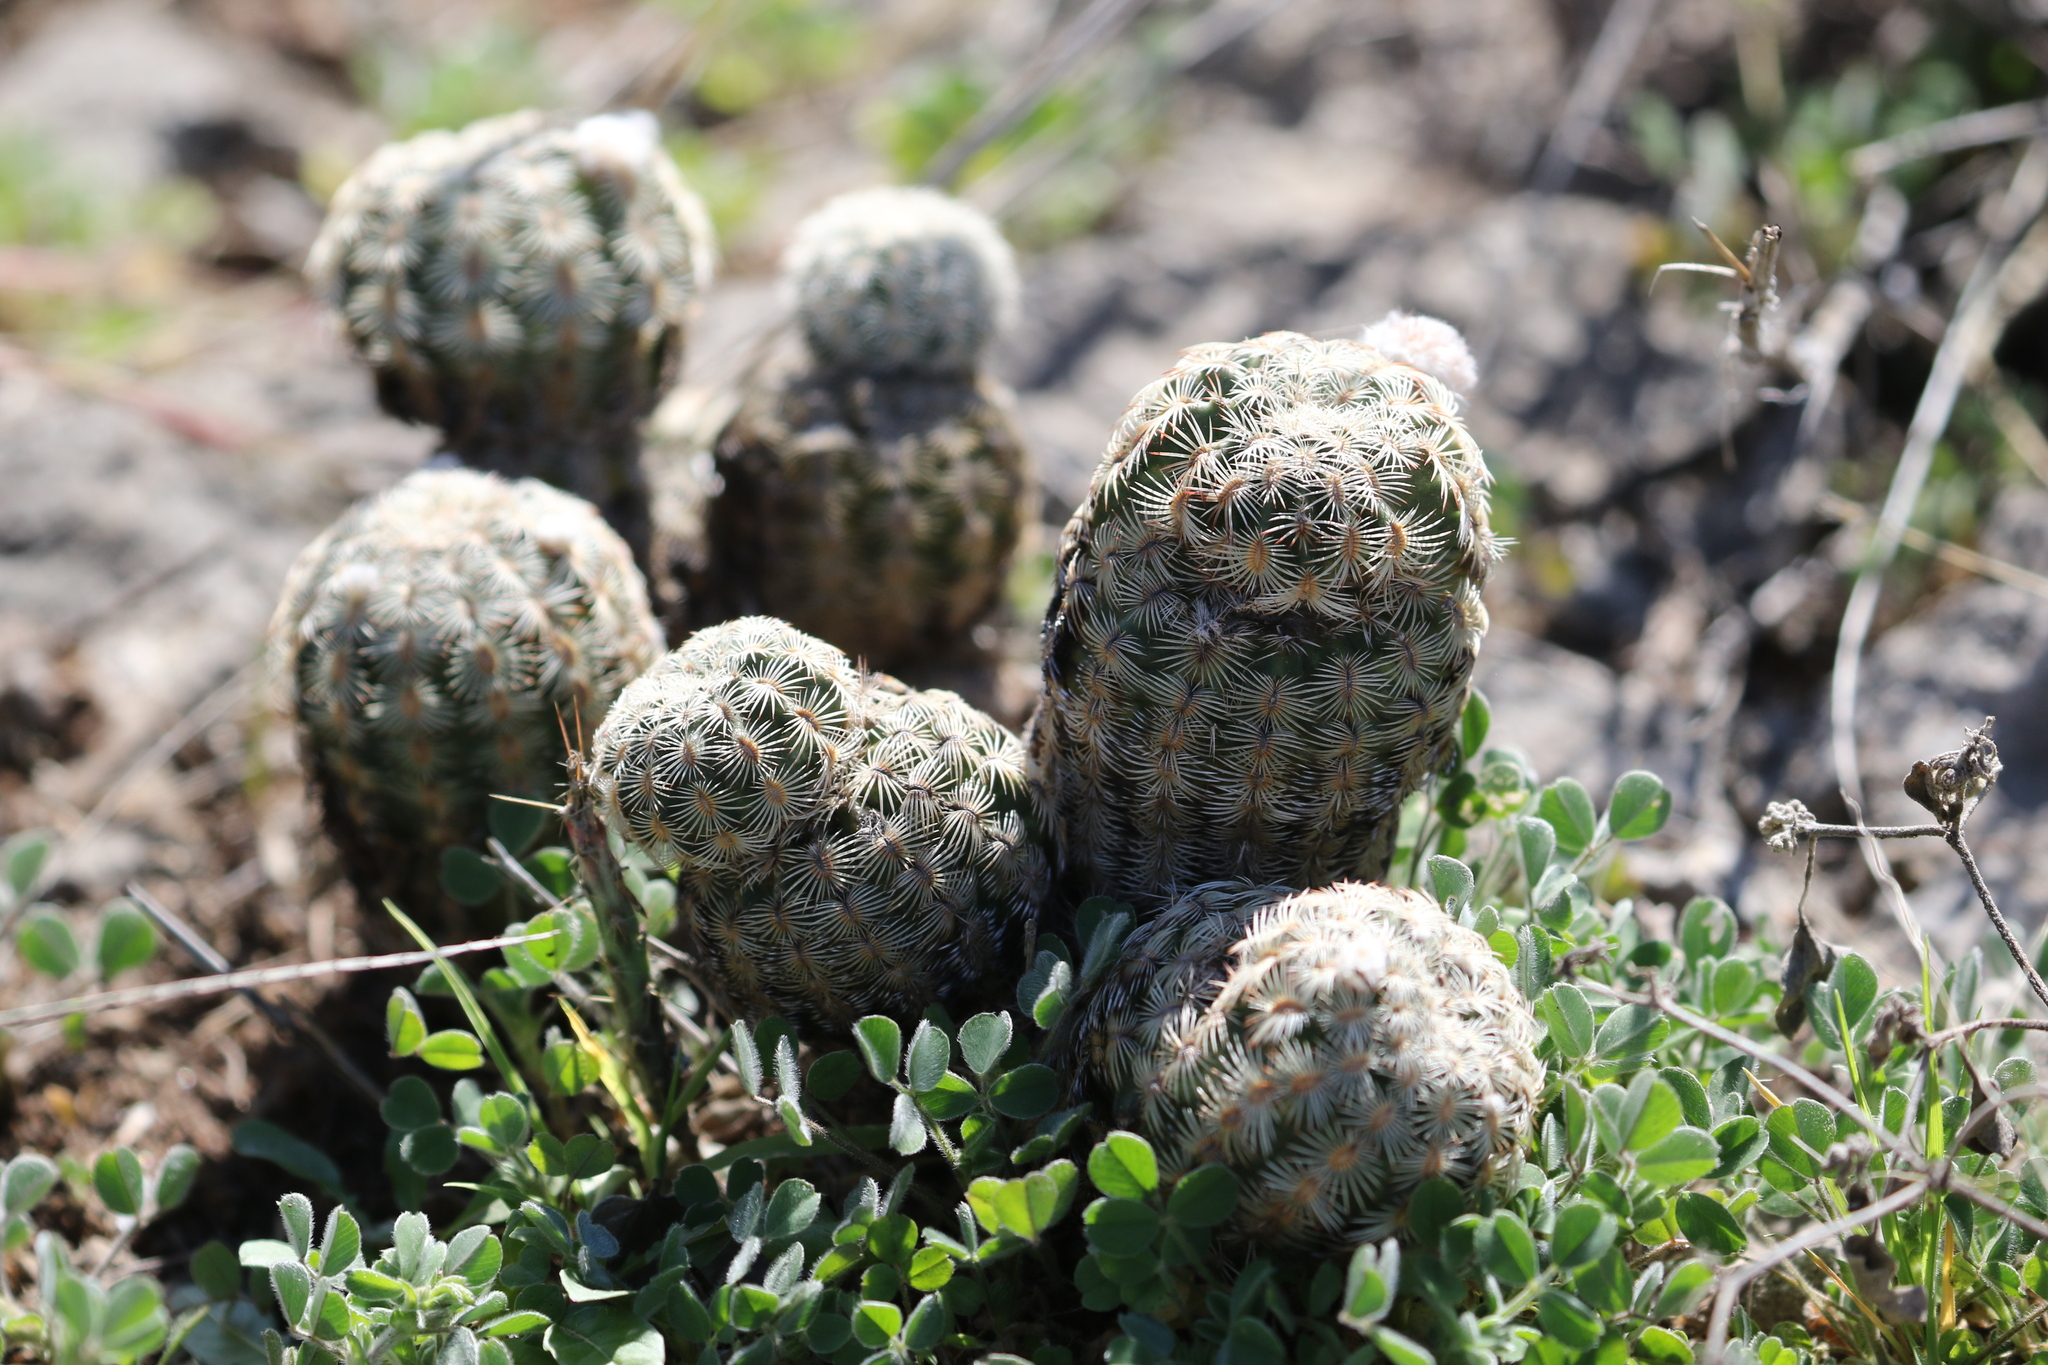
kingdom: Plantae
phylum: Tracheophyta
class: Magnoliopsida
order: Caryophyllales
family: Cactaceae
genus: Echinocereus
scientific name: Echinocereus reichenbachii
